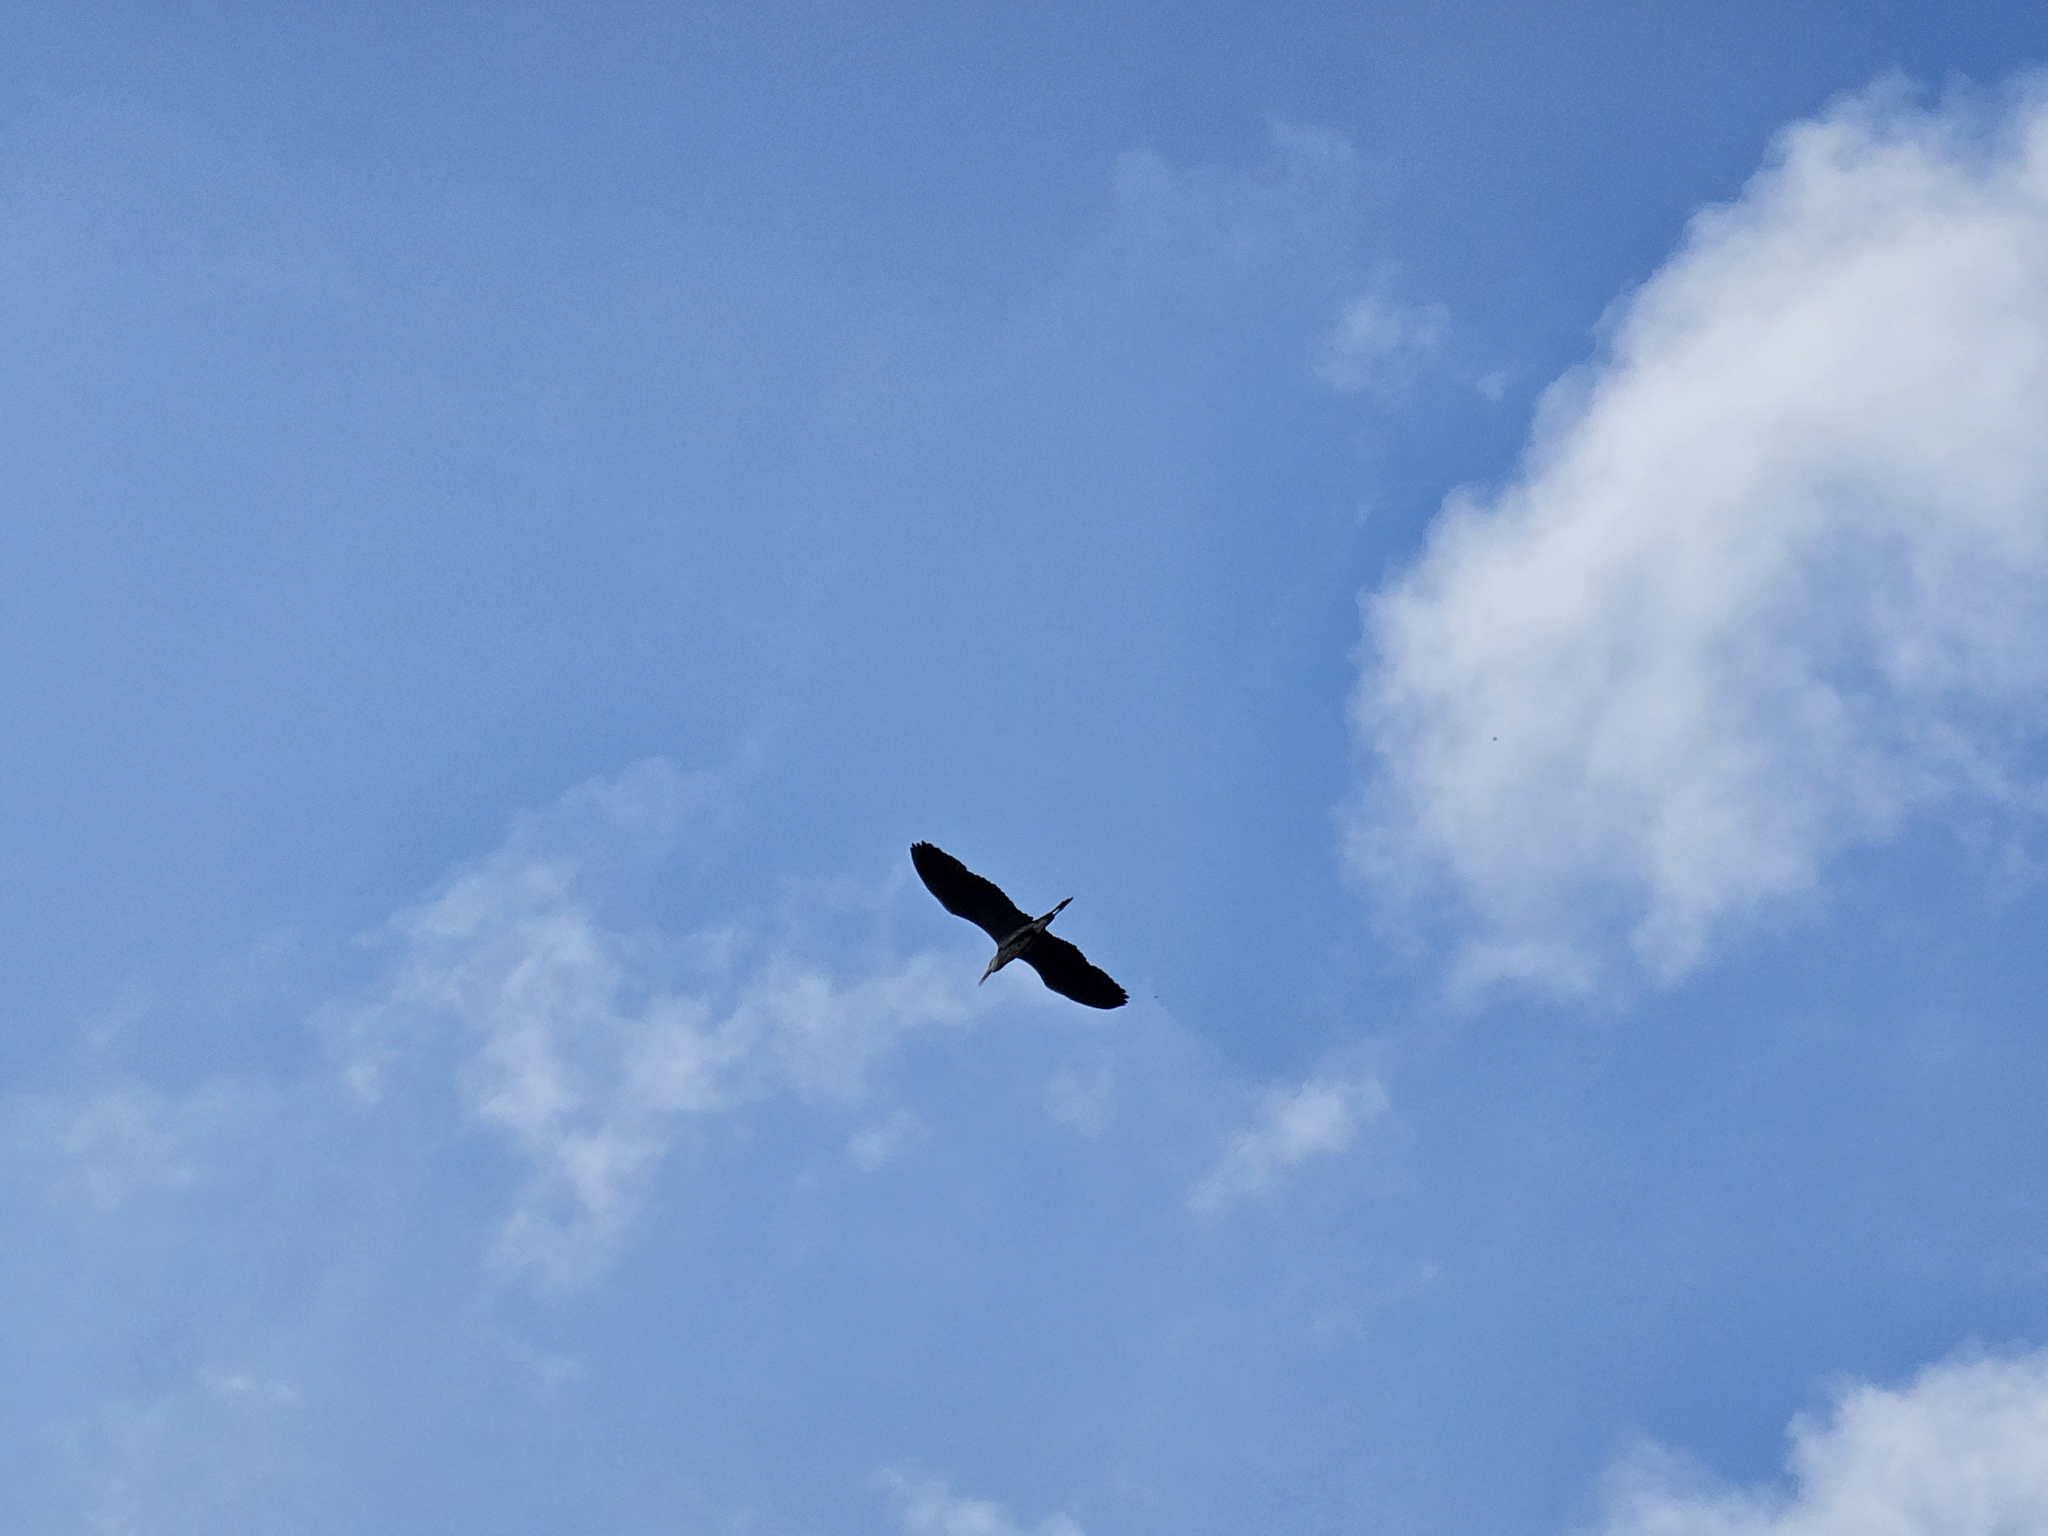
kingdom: Animalia
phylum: Chordata
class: Aves
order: Pelecaniformes
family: Ardeidae
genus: Ardea
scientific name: Ardea cinerea
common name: Grey heron
